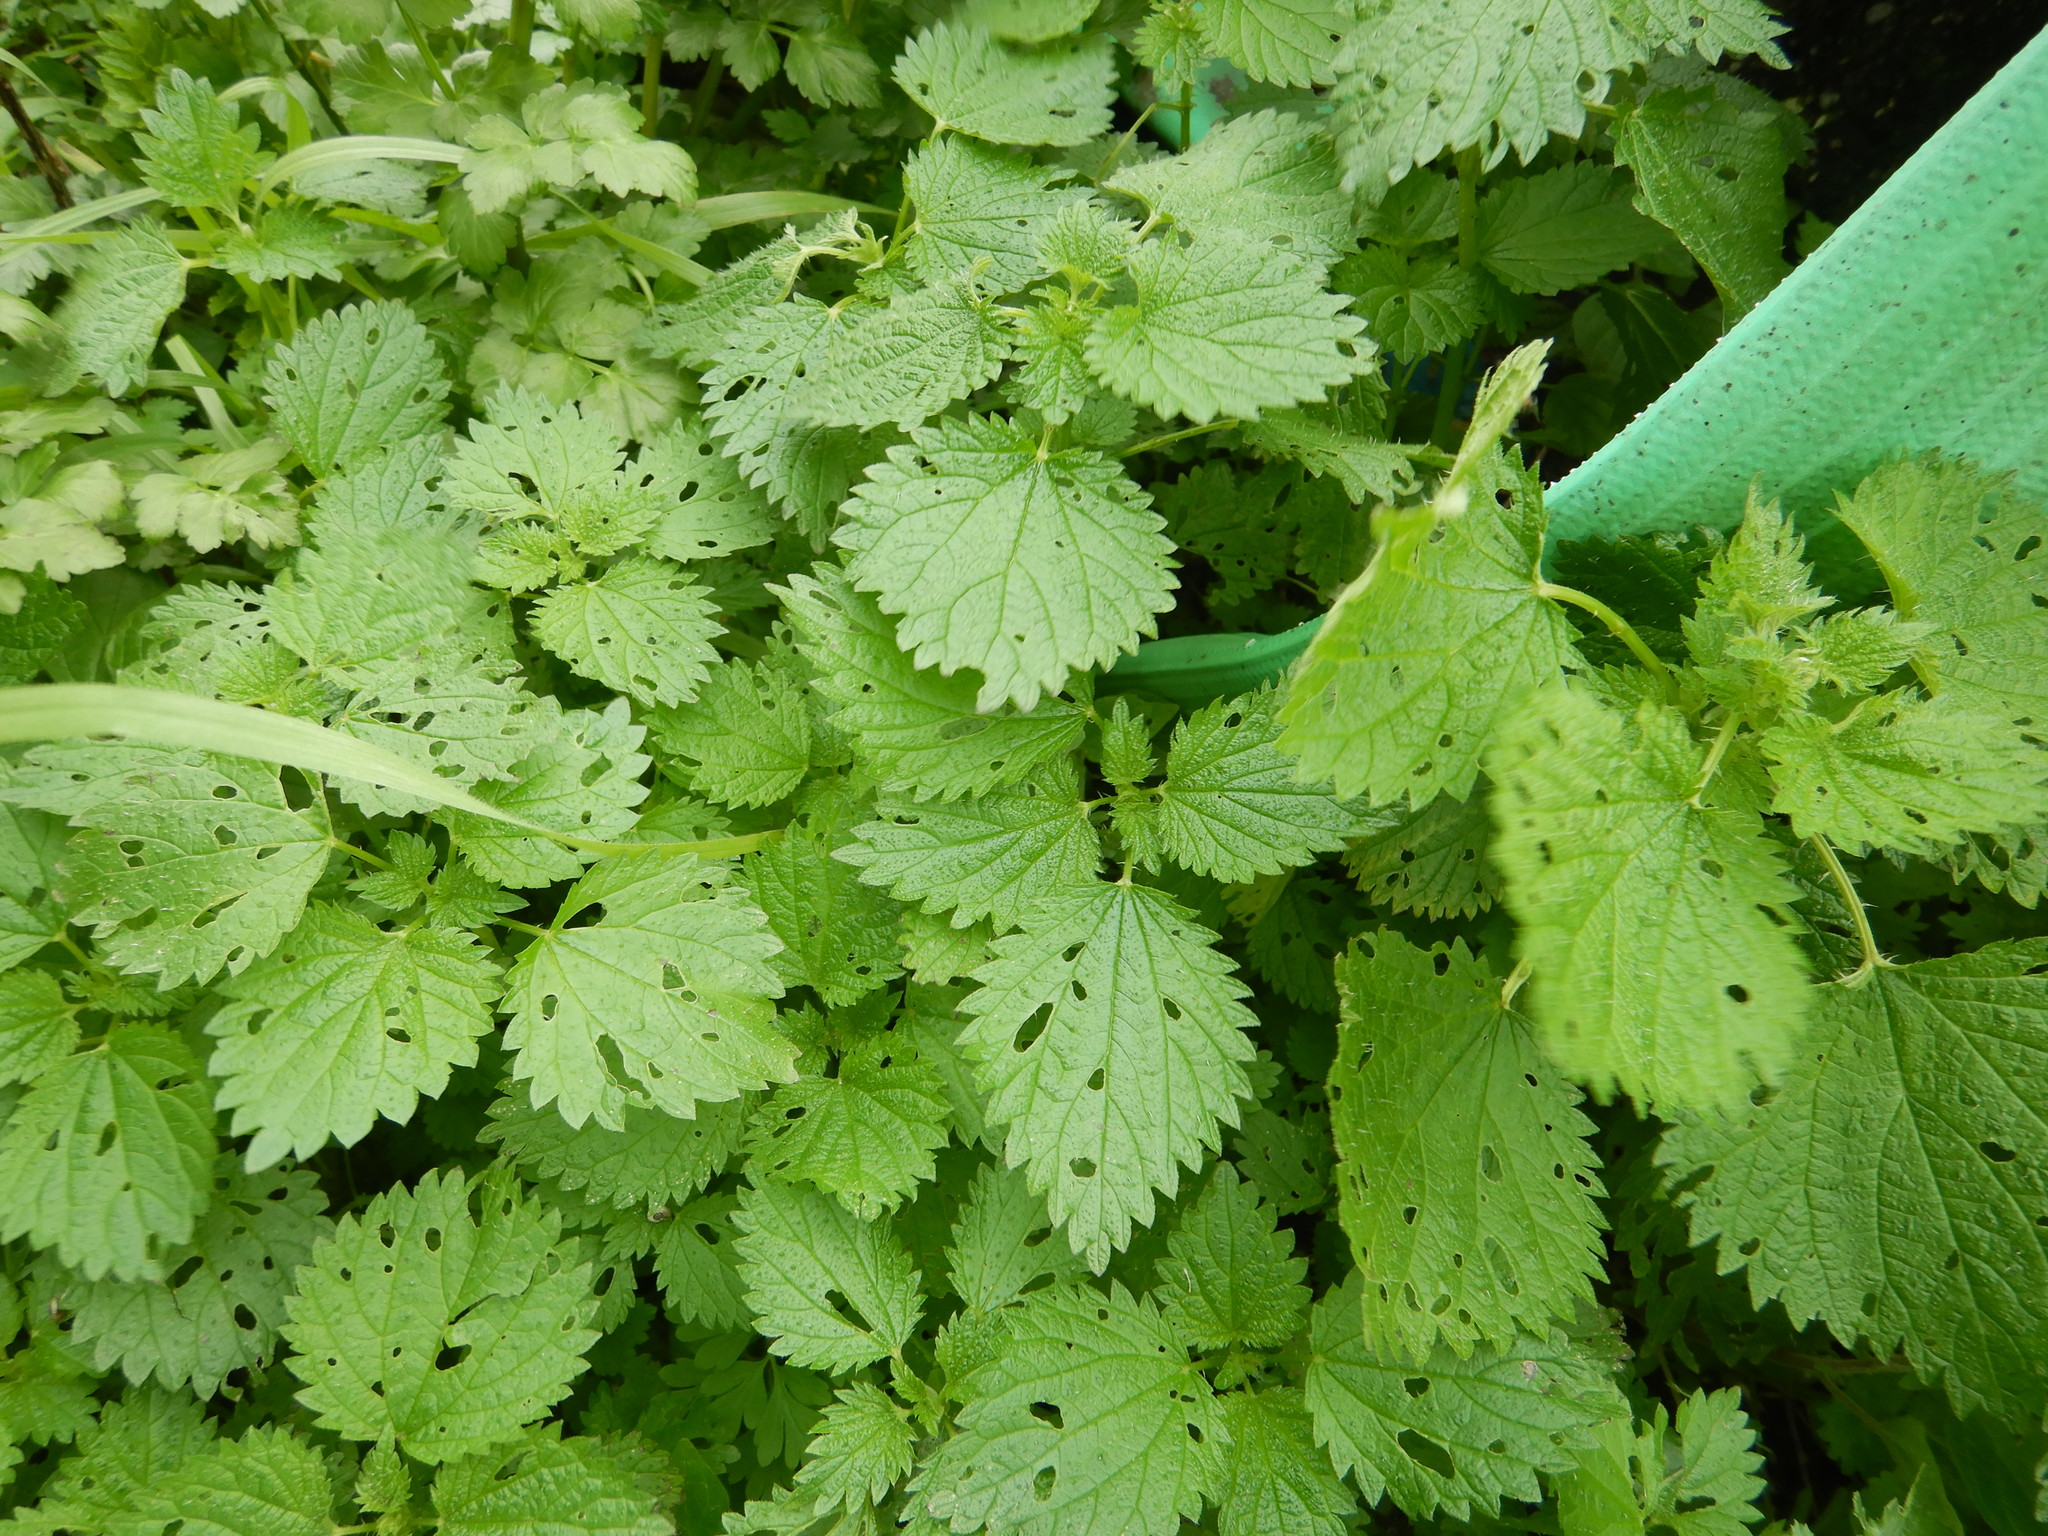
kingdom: Plantae
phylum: Tracheophyta
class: Magnoliopsida
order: Rosales
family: Urticaceae
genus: Urtica
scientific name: Urtica membranacea
